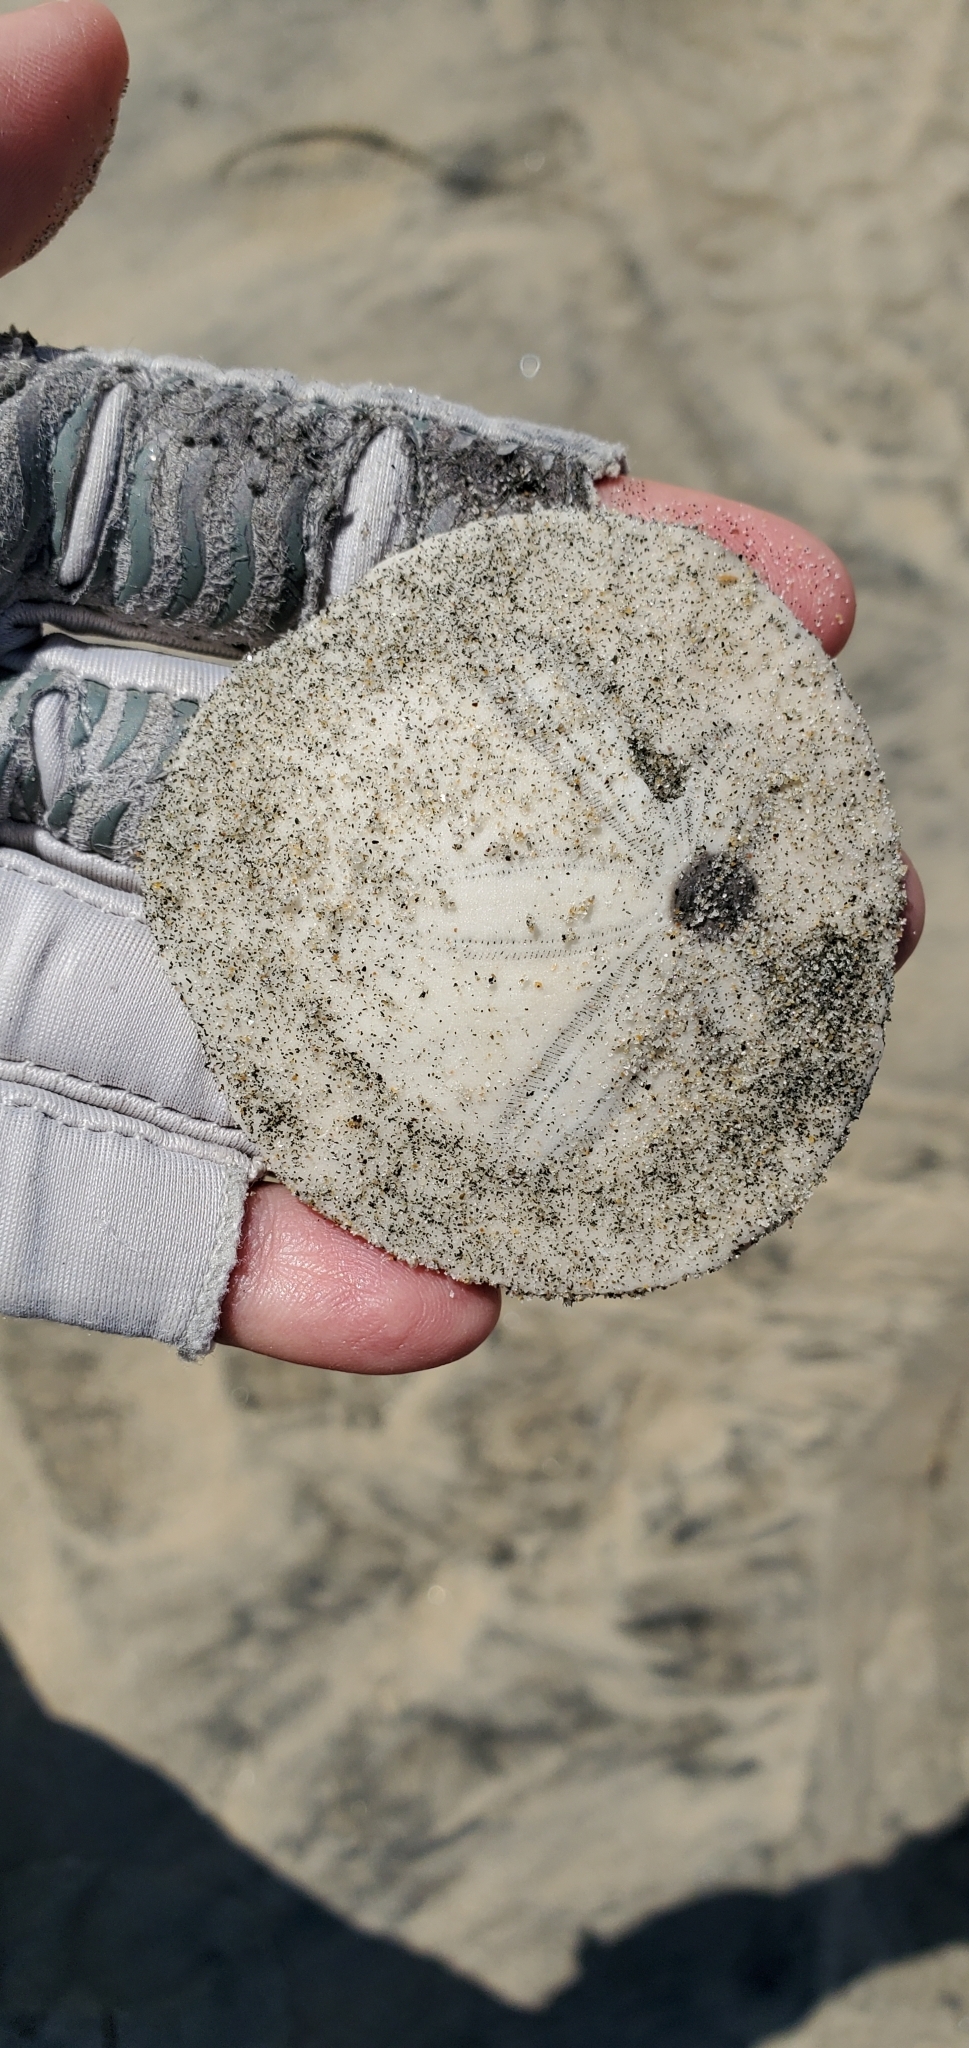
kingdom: Animalia
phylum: Echinodermata
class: Echinoidea
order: Echinolampadacea
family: Dendrasteridae
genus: Dendraster
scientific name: Dendraster excentricus
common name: Eccentric sand dollar sea urchin
